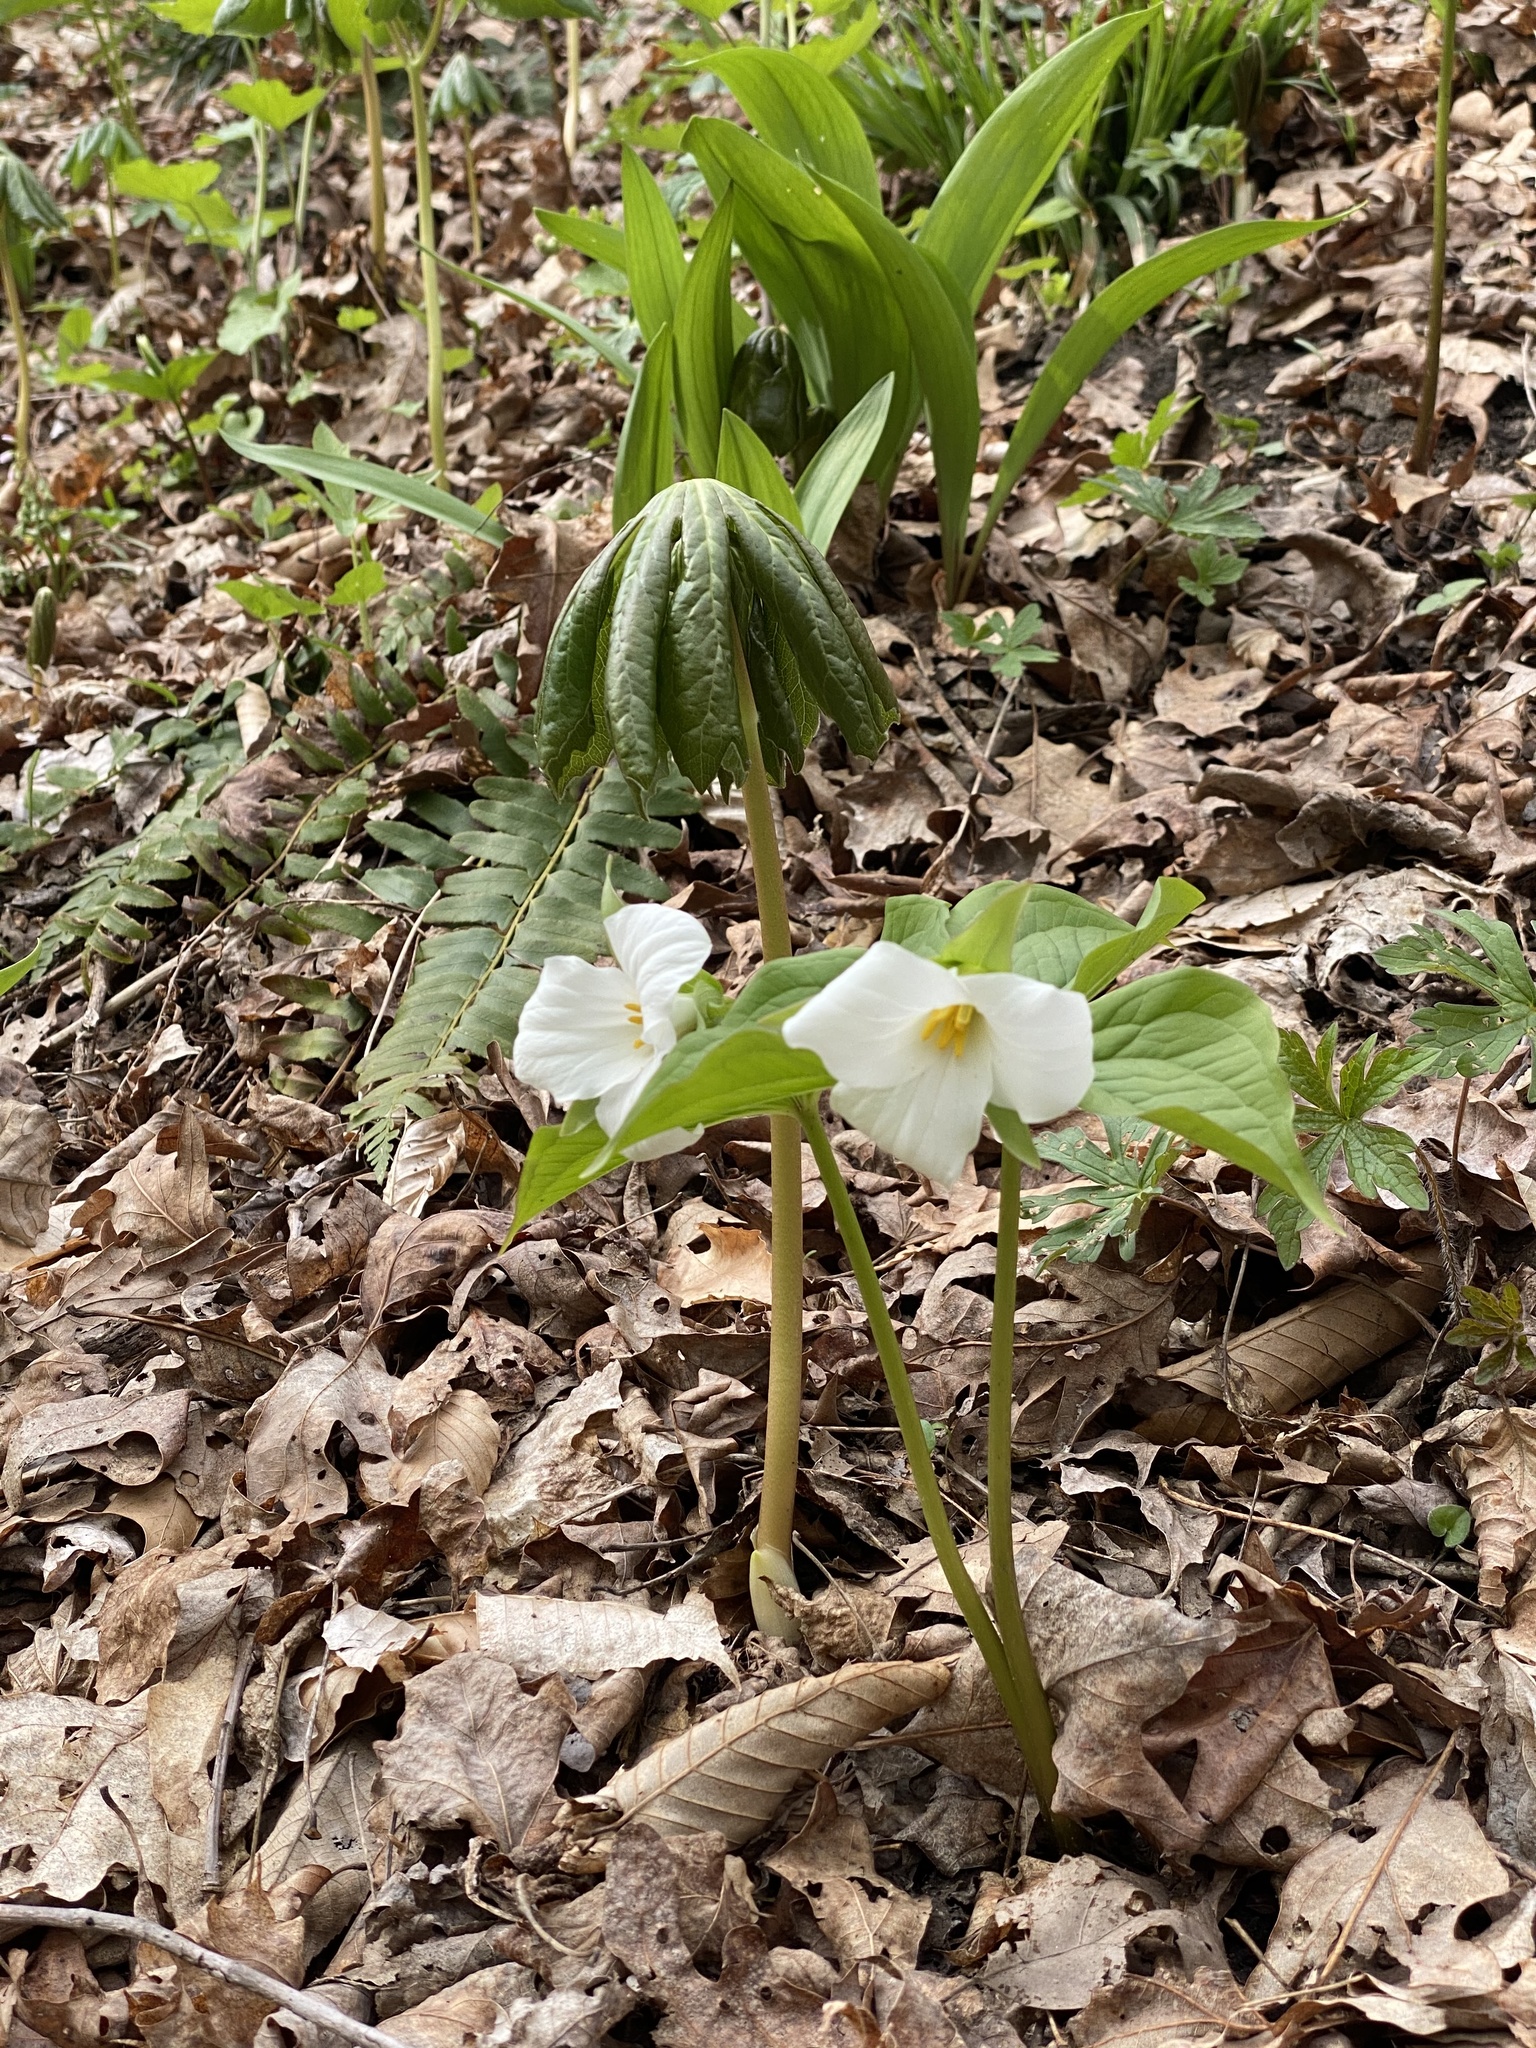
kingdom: Plantae
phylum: Tracheophyta
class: Liliopsida
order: Liliales
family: Melanthiaceae
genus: Trillium
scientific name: Trillium grandiflorum
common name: Great white trillium
